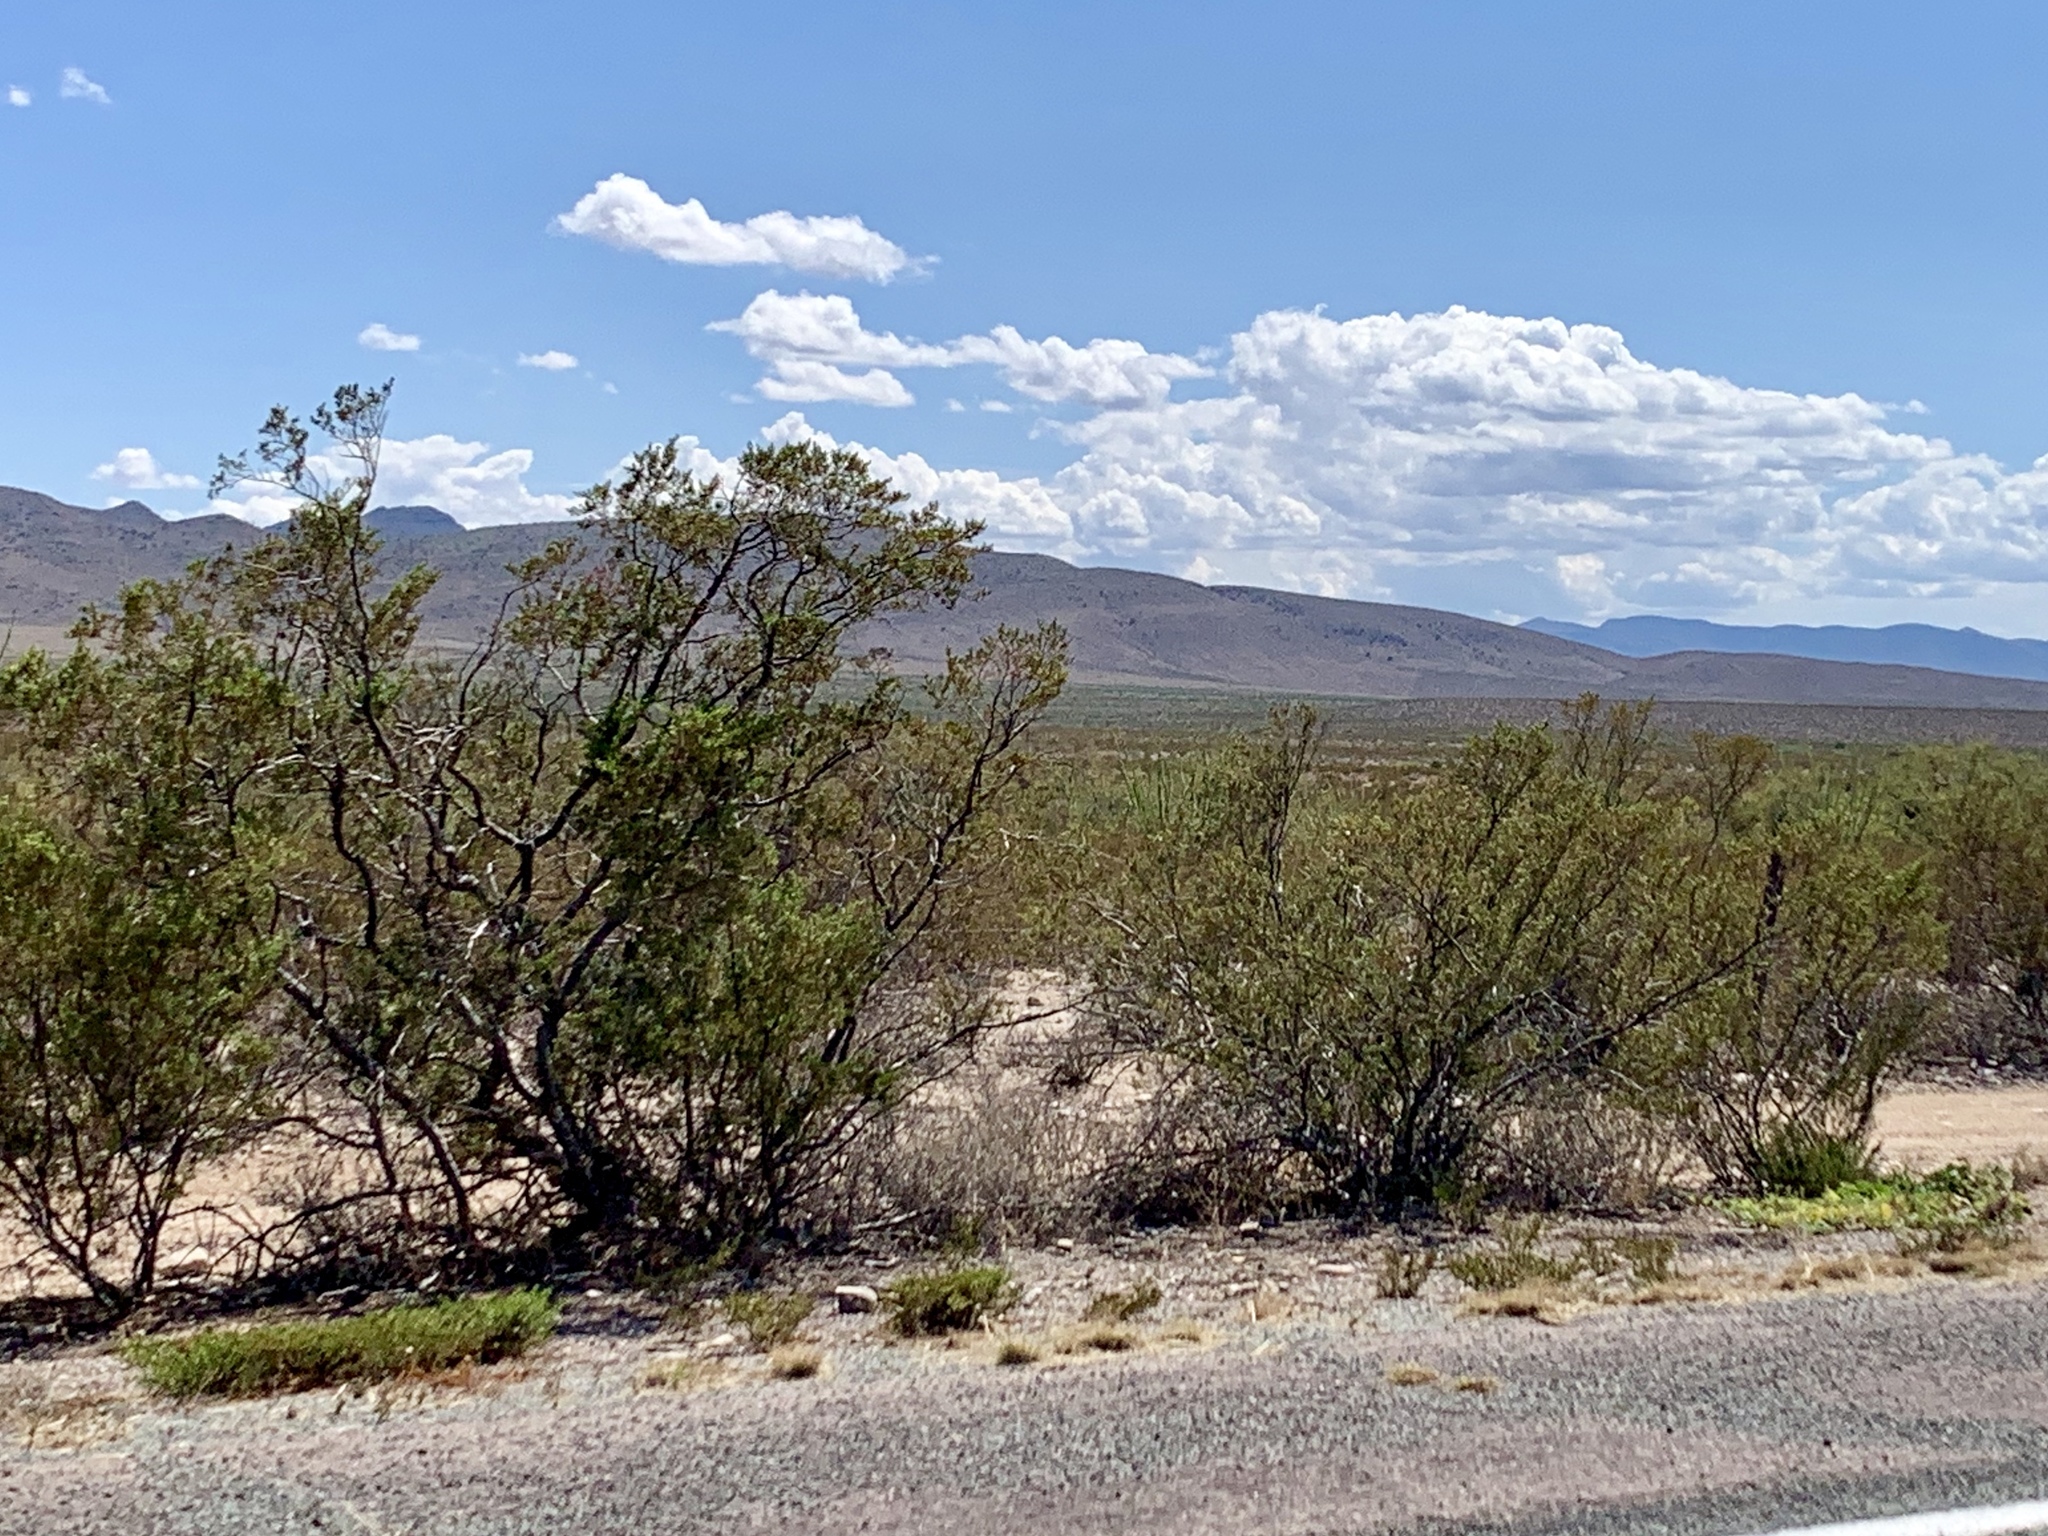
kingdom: Plantae
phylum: Tracheophyta
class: Magnoliopsida
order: Zygophyllales
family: Zygophyllaceae
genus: Larrea
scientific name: Larrea tridentata
